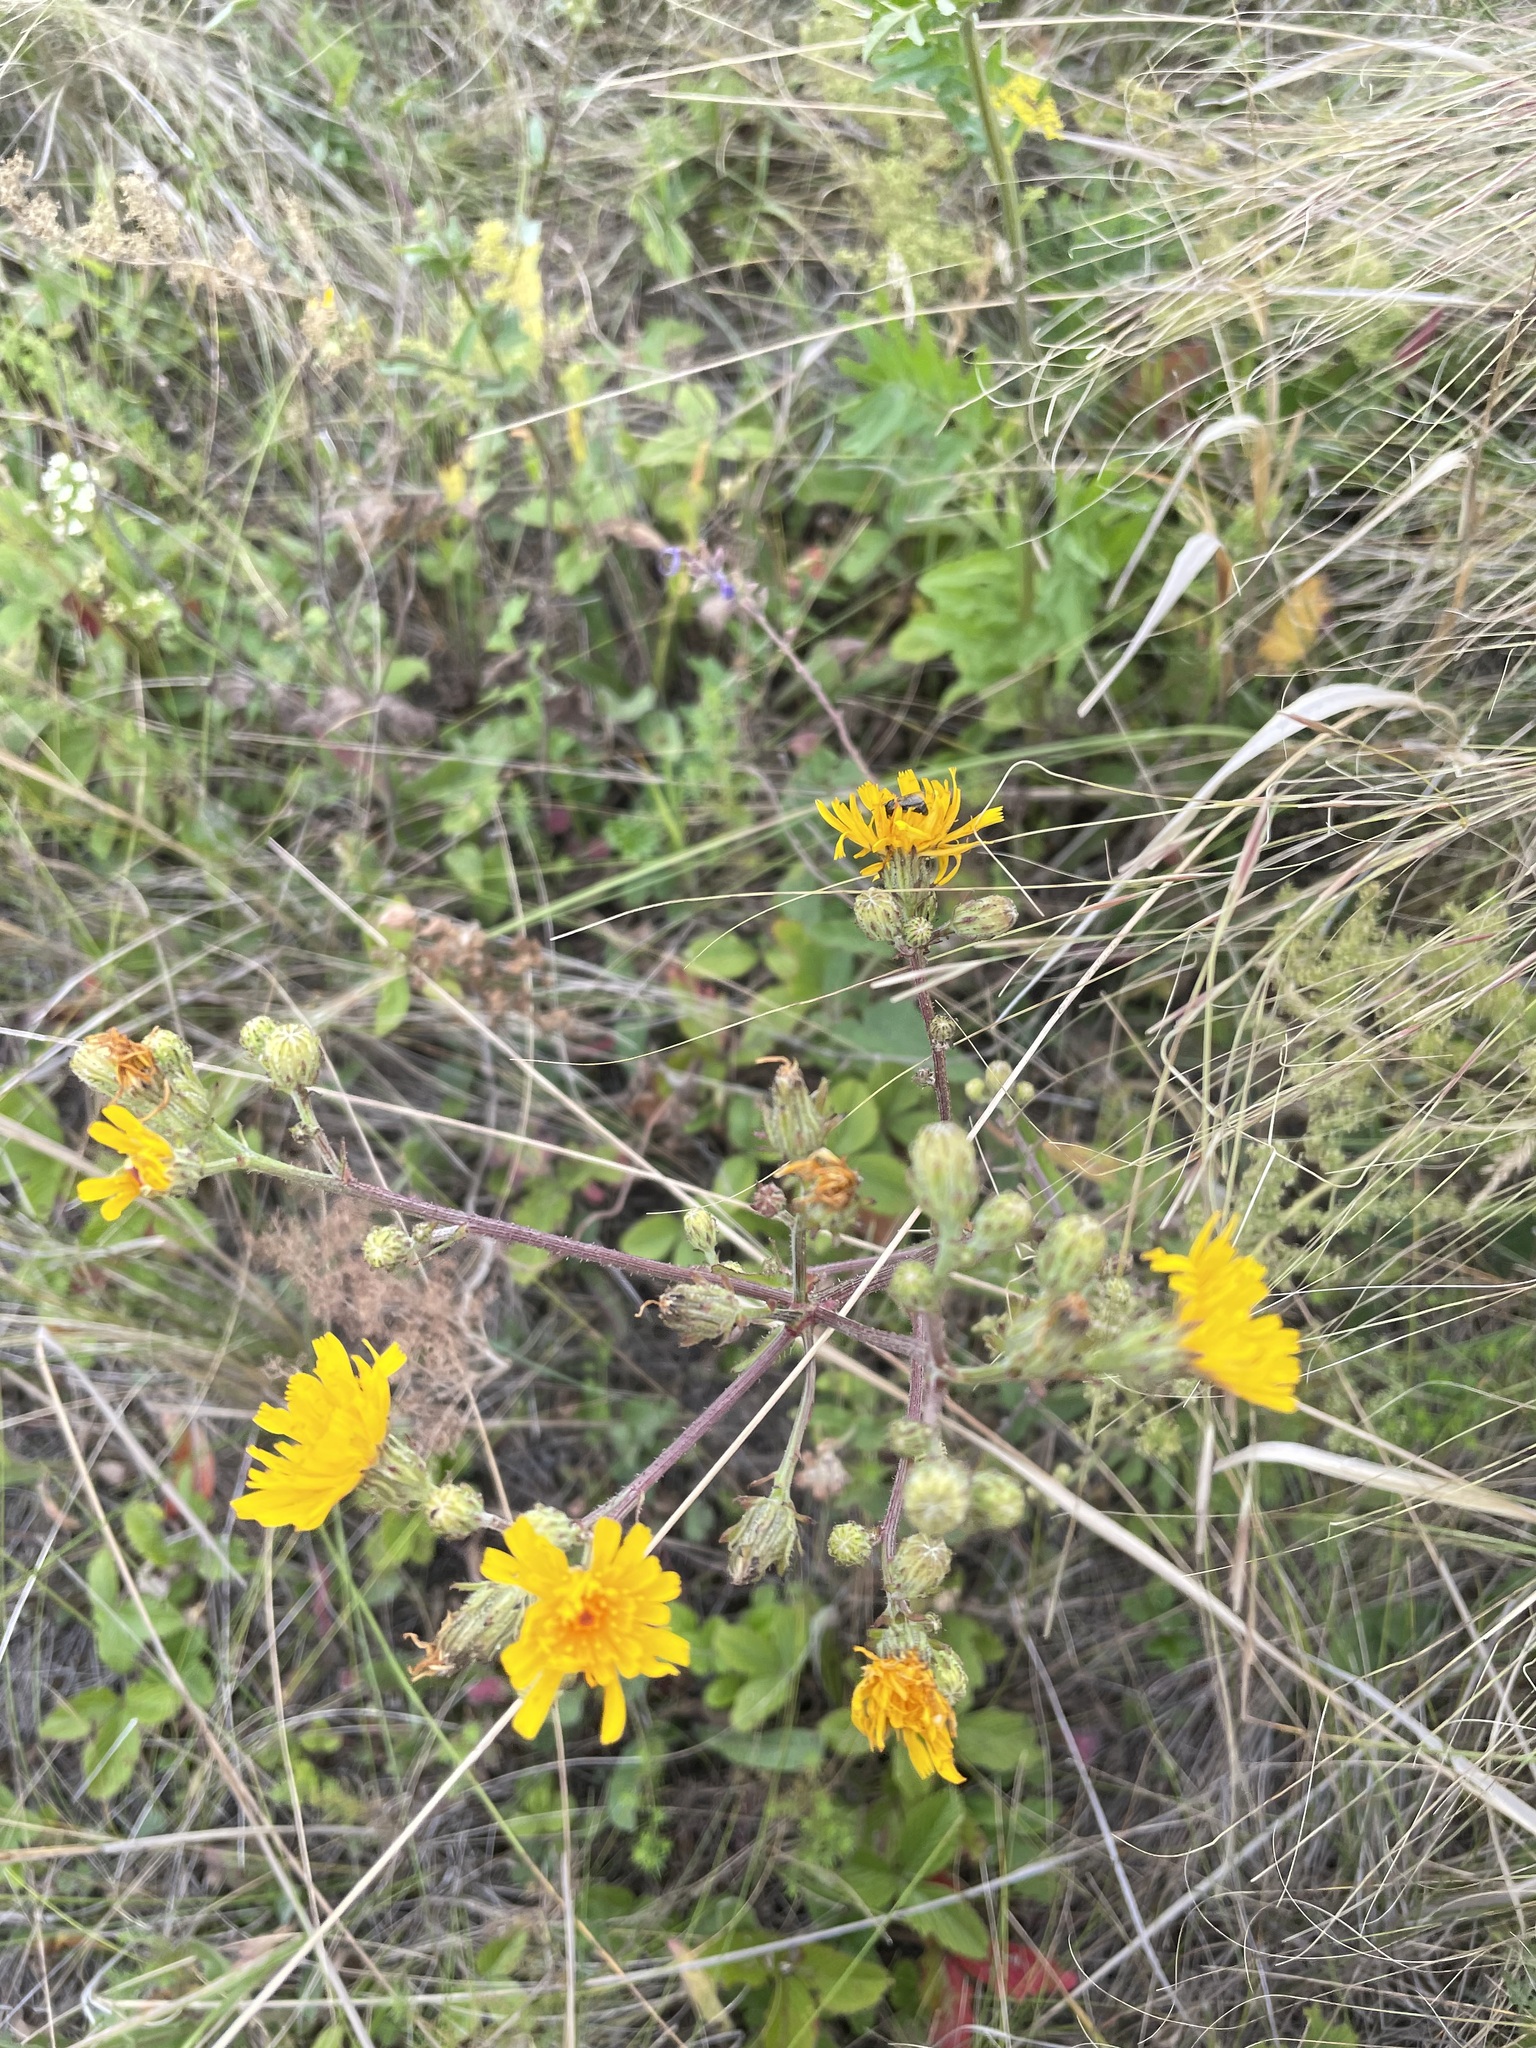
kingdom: Plantae
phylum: Tracheophyta
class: Magnoliopsida
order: Asterales
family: Asteraceae
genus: Picris
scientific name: Picris hieracioides
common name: Hawkweed oxtongue
